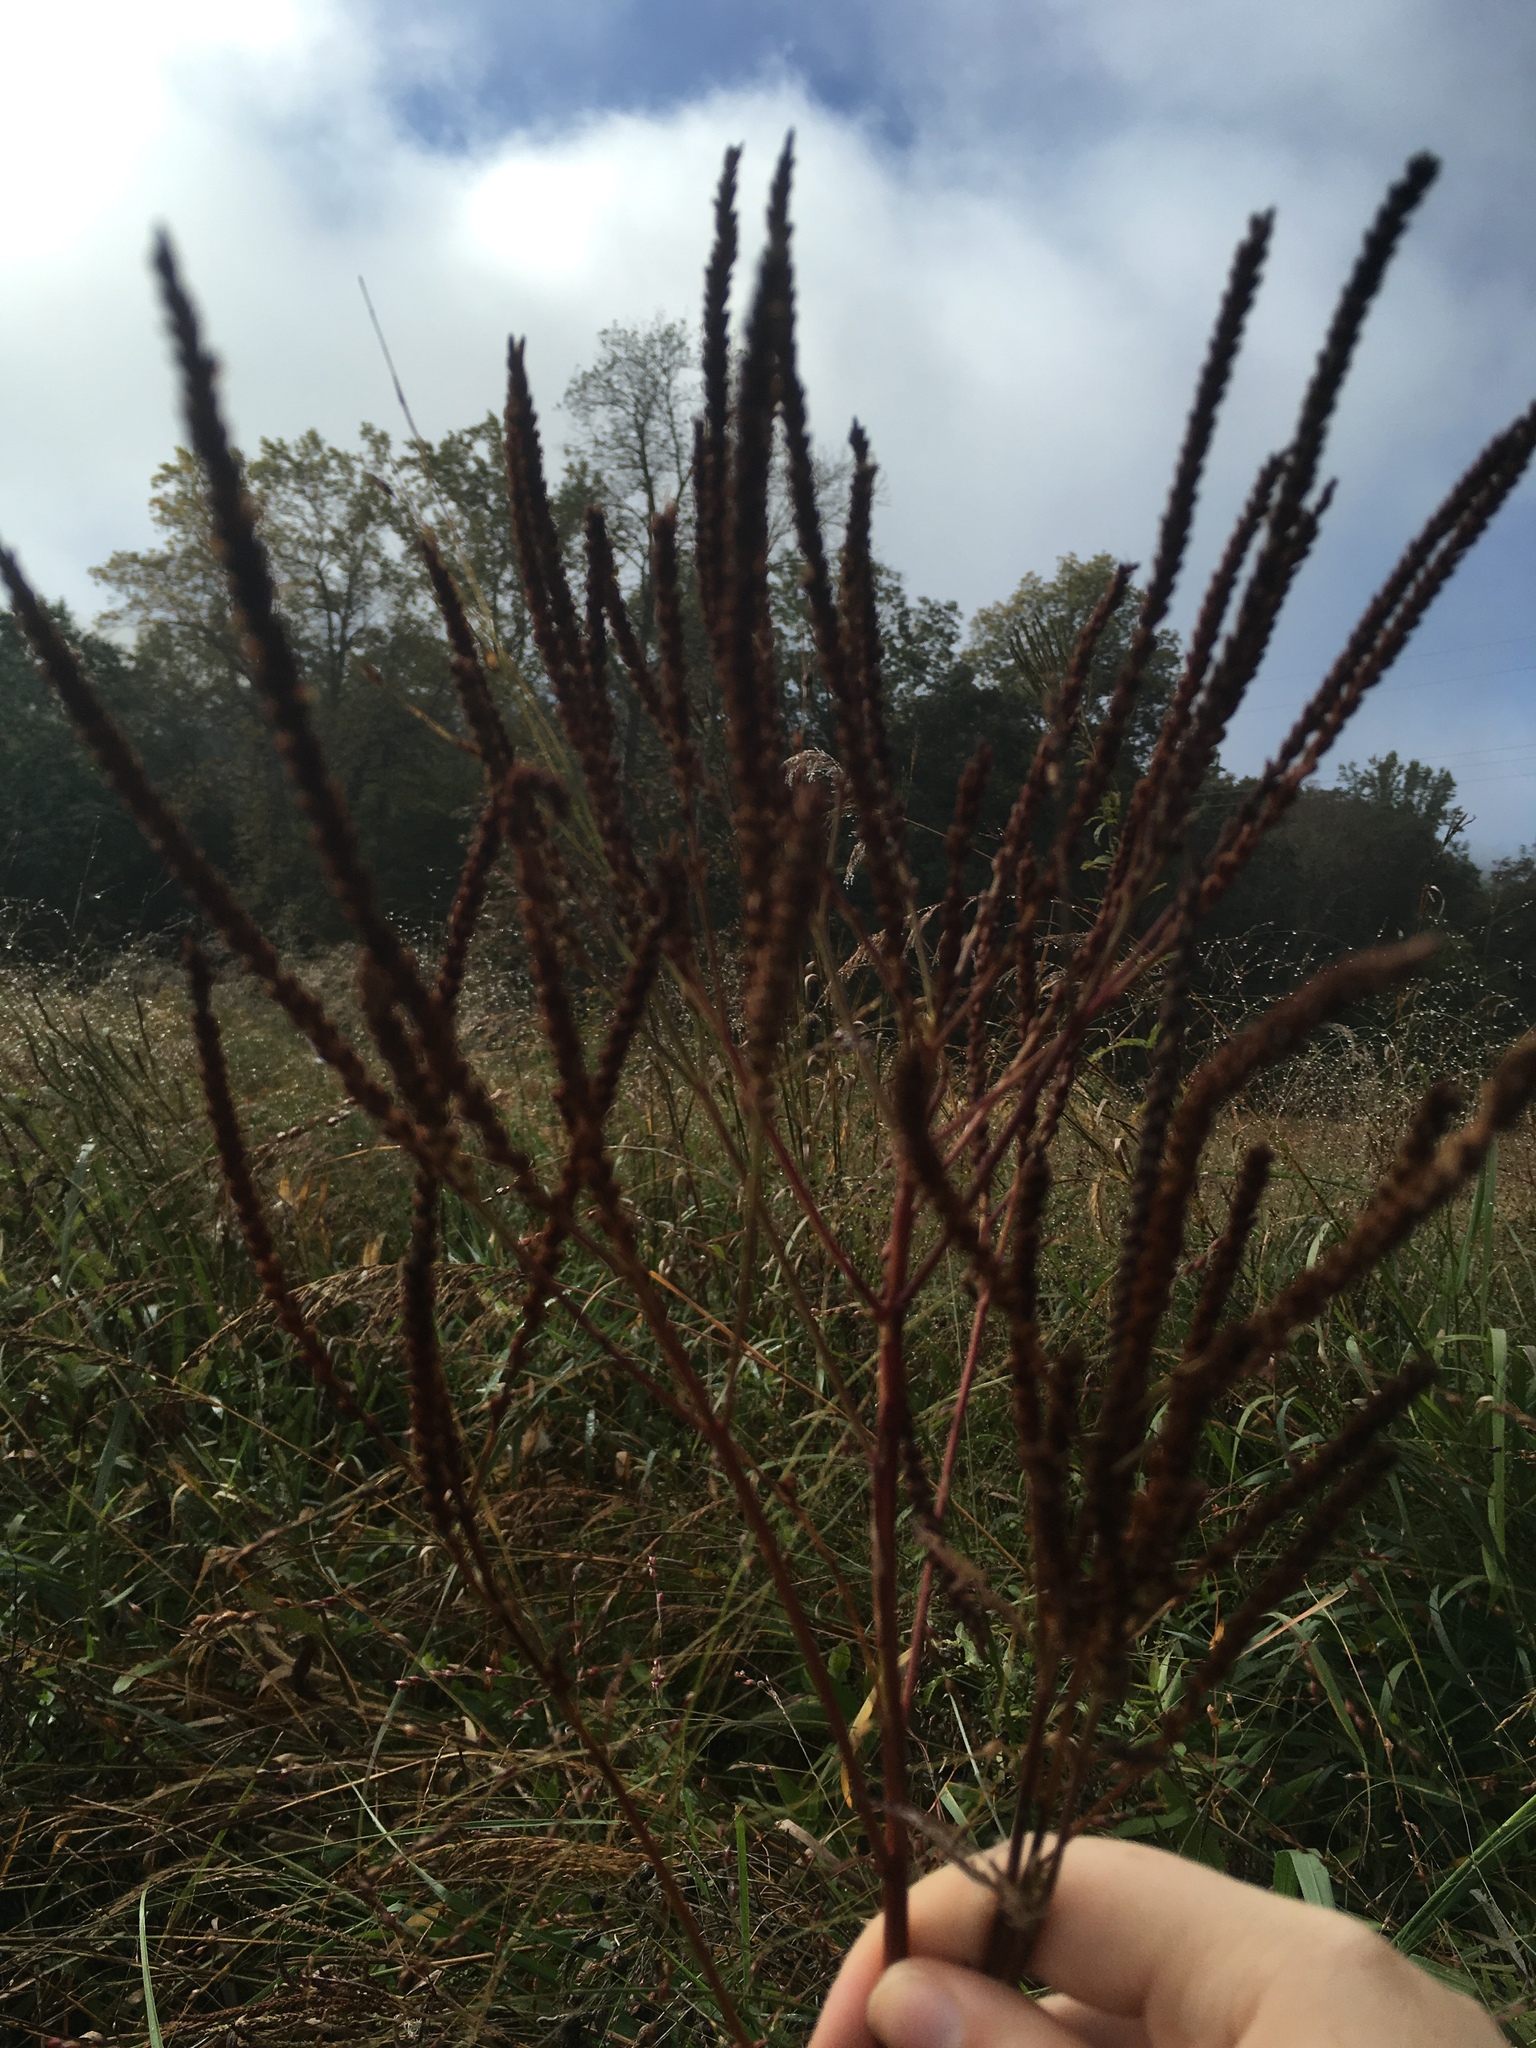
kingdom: Plantae
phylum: Tracheophyta
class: Magnoliopsida
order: Lamiales
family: Verbenaceae
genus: Verbena
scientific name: Verbena hastata
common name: American blue vervain
